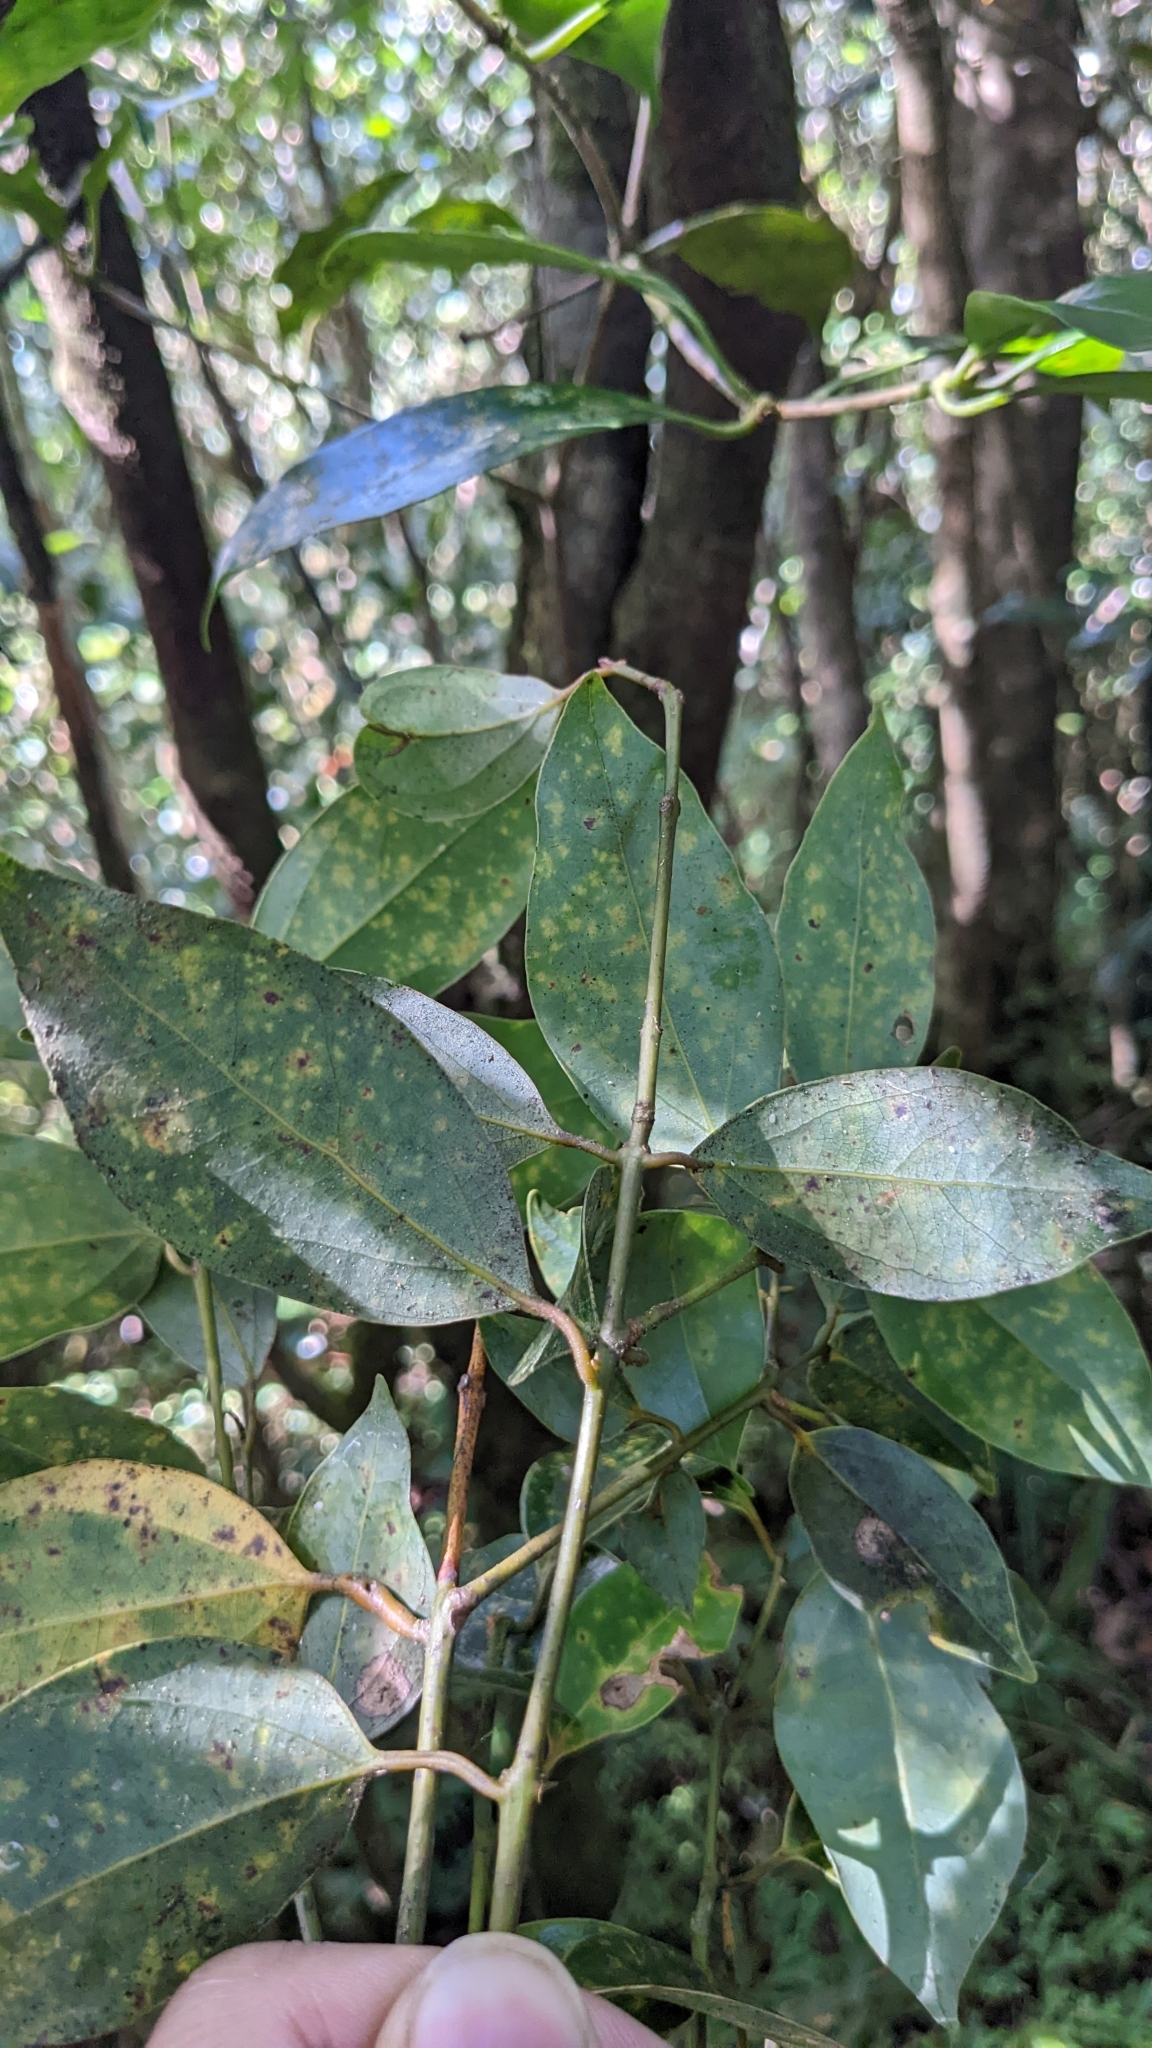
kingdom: Plantae
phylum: Tracheophyta
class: Magnoliopsida
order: Laurales
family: Lauraceae
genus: Cinnamomum
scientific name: Cinnamomum chekiangense
